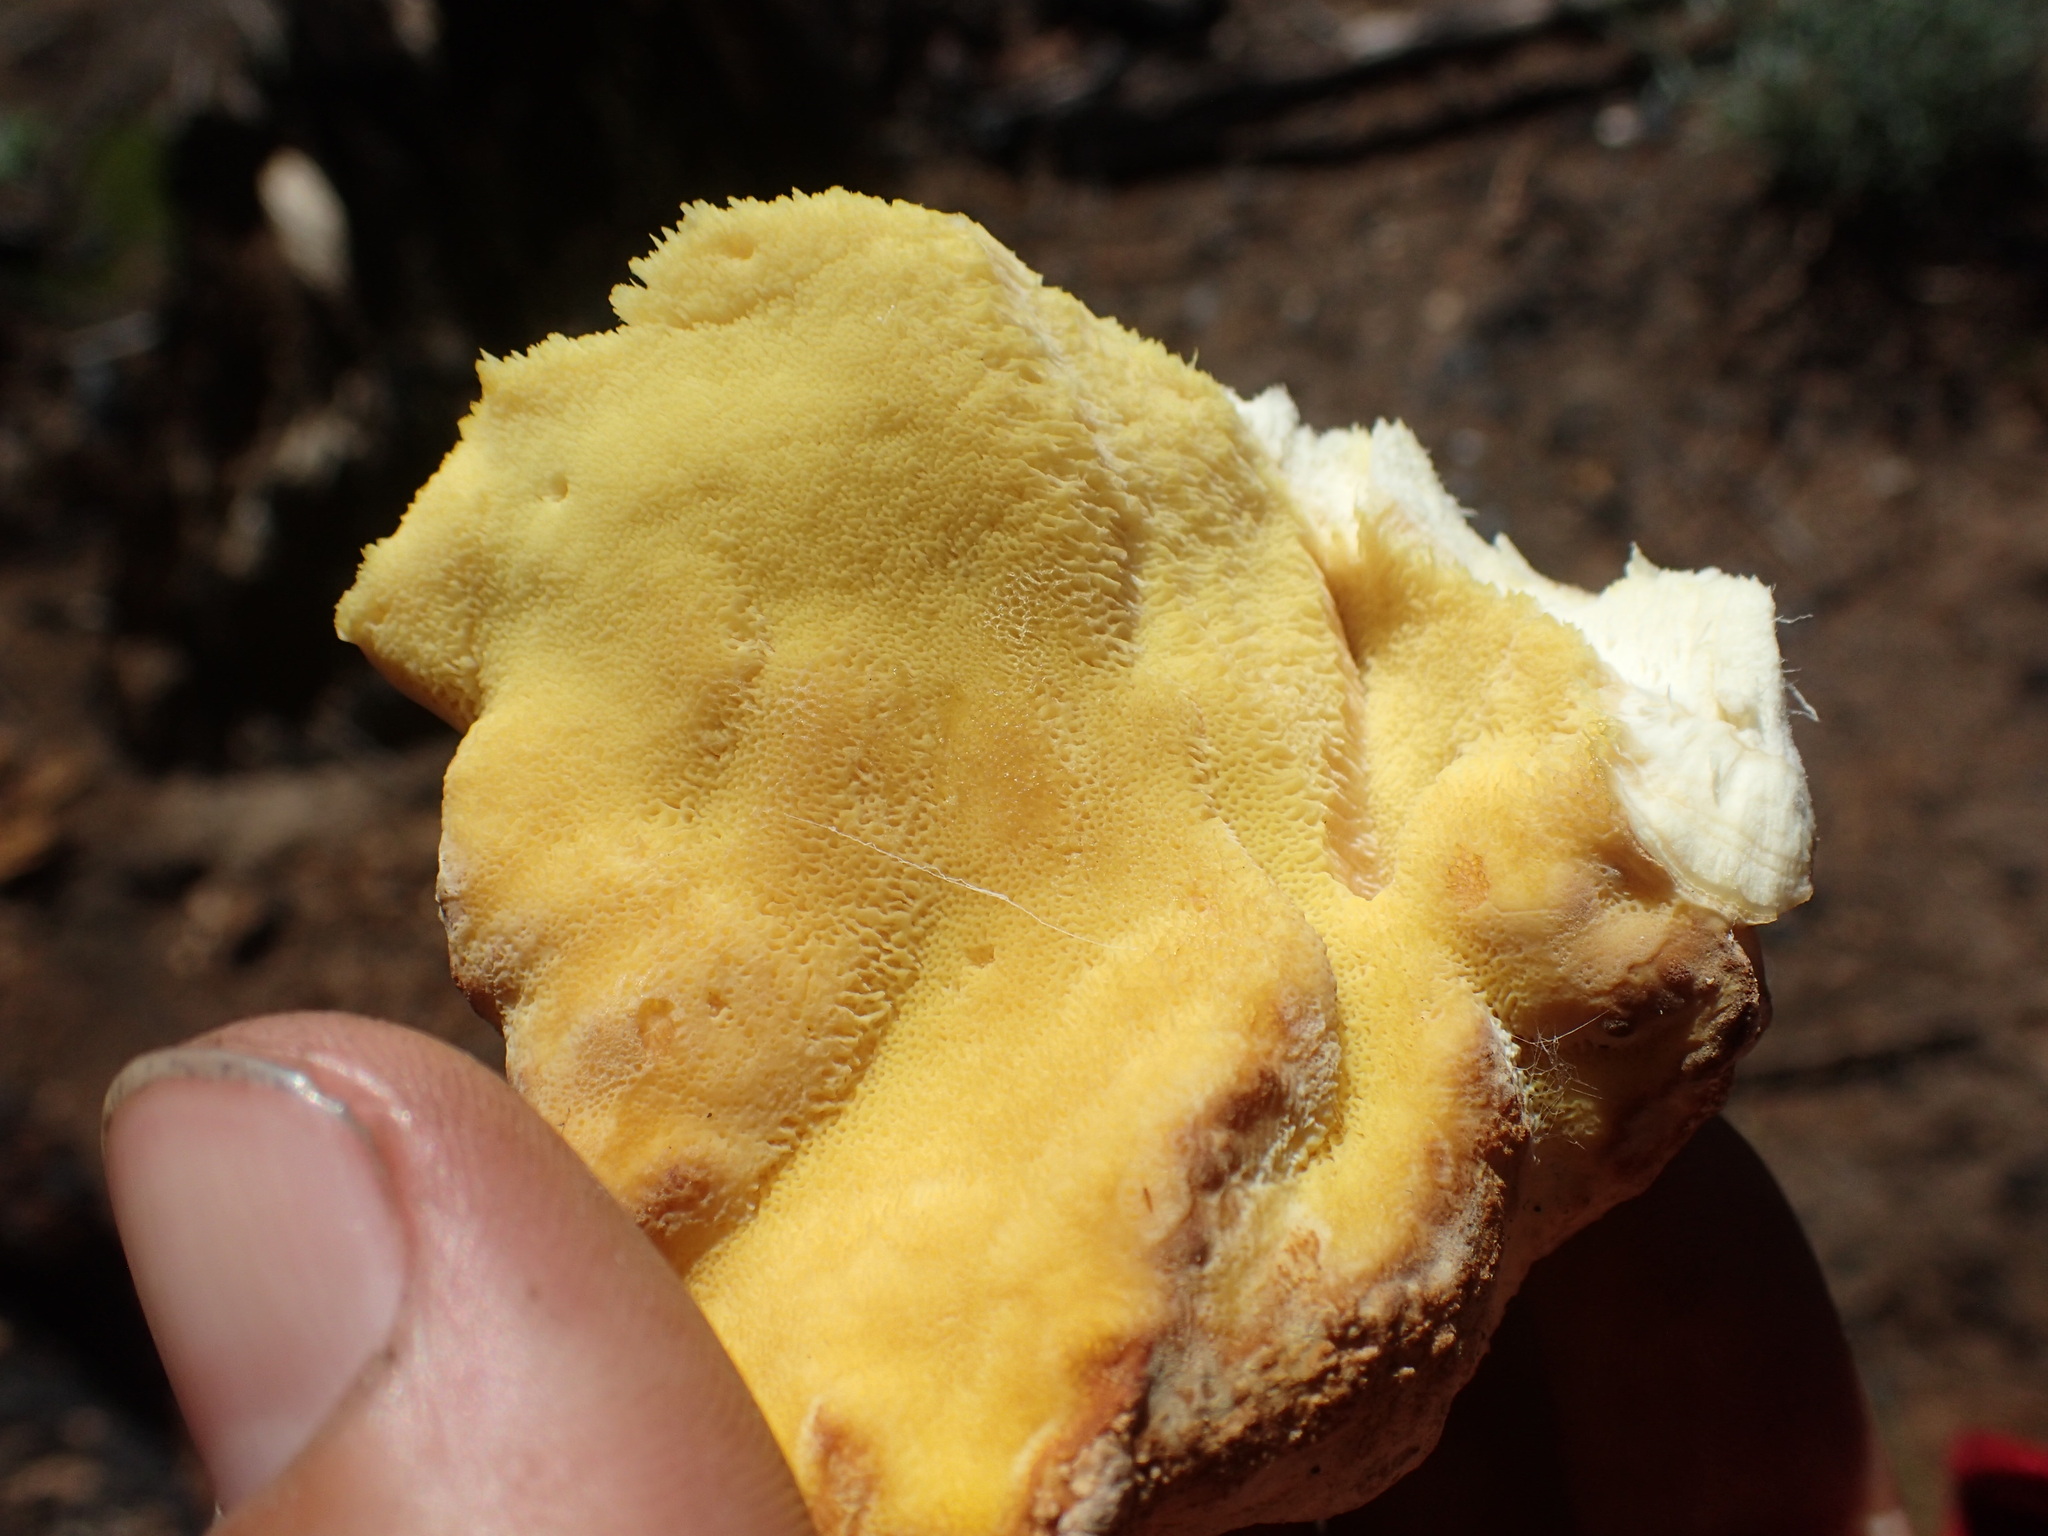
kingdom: Fungi
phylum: Basidiomycota
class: Agaricomycetes
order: Polyporales
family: Laetiporaceae
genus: Laetiporus
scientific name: Laetiporus conifericola
